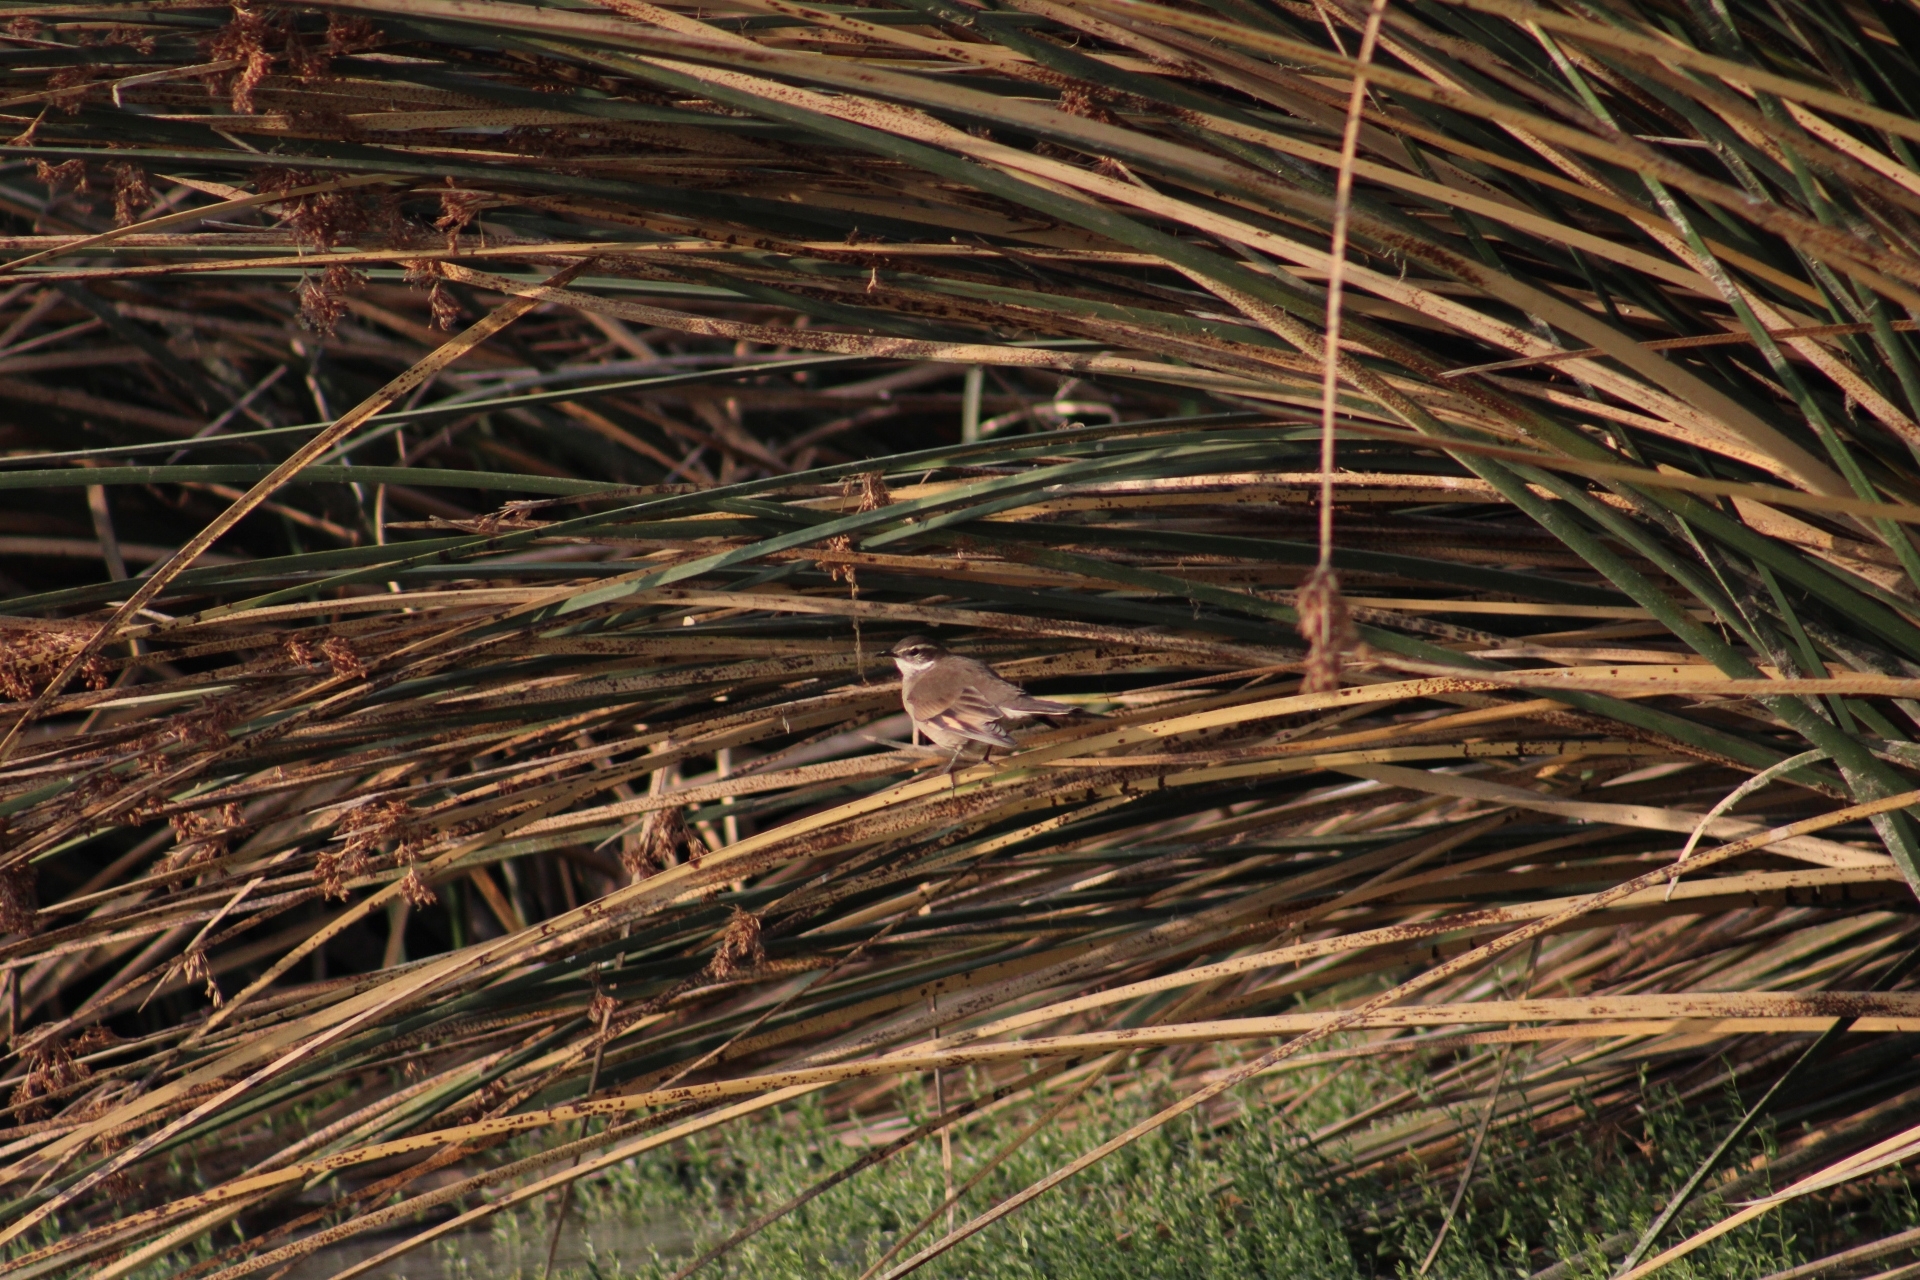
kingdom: Animalia
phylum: Chordata
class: Aves
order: Passeriformes
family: Furnariidae
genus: Cinclodes
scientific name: Cinclodes fuscus
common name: Buff-winged cinclodes
